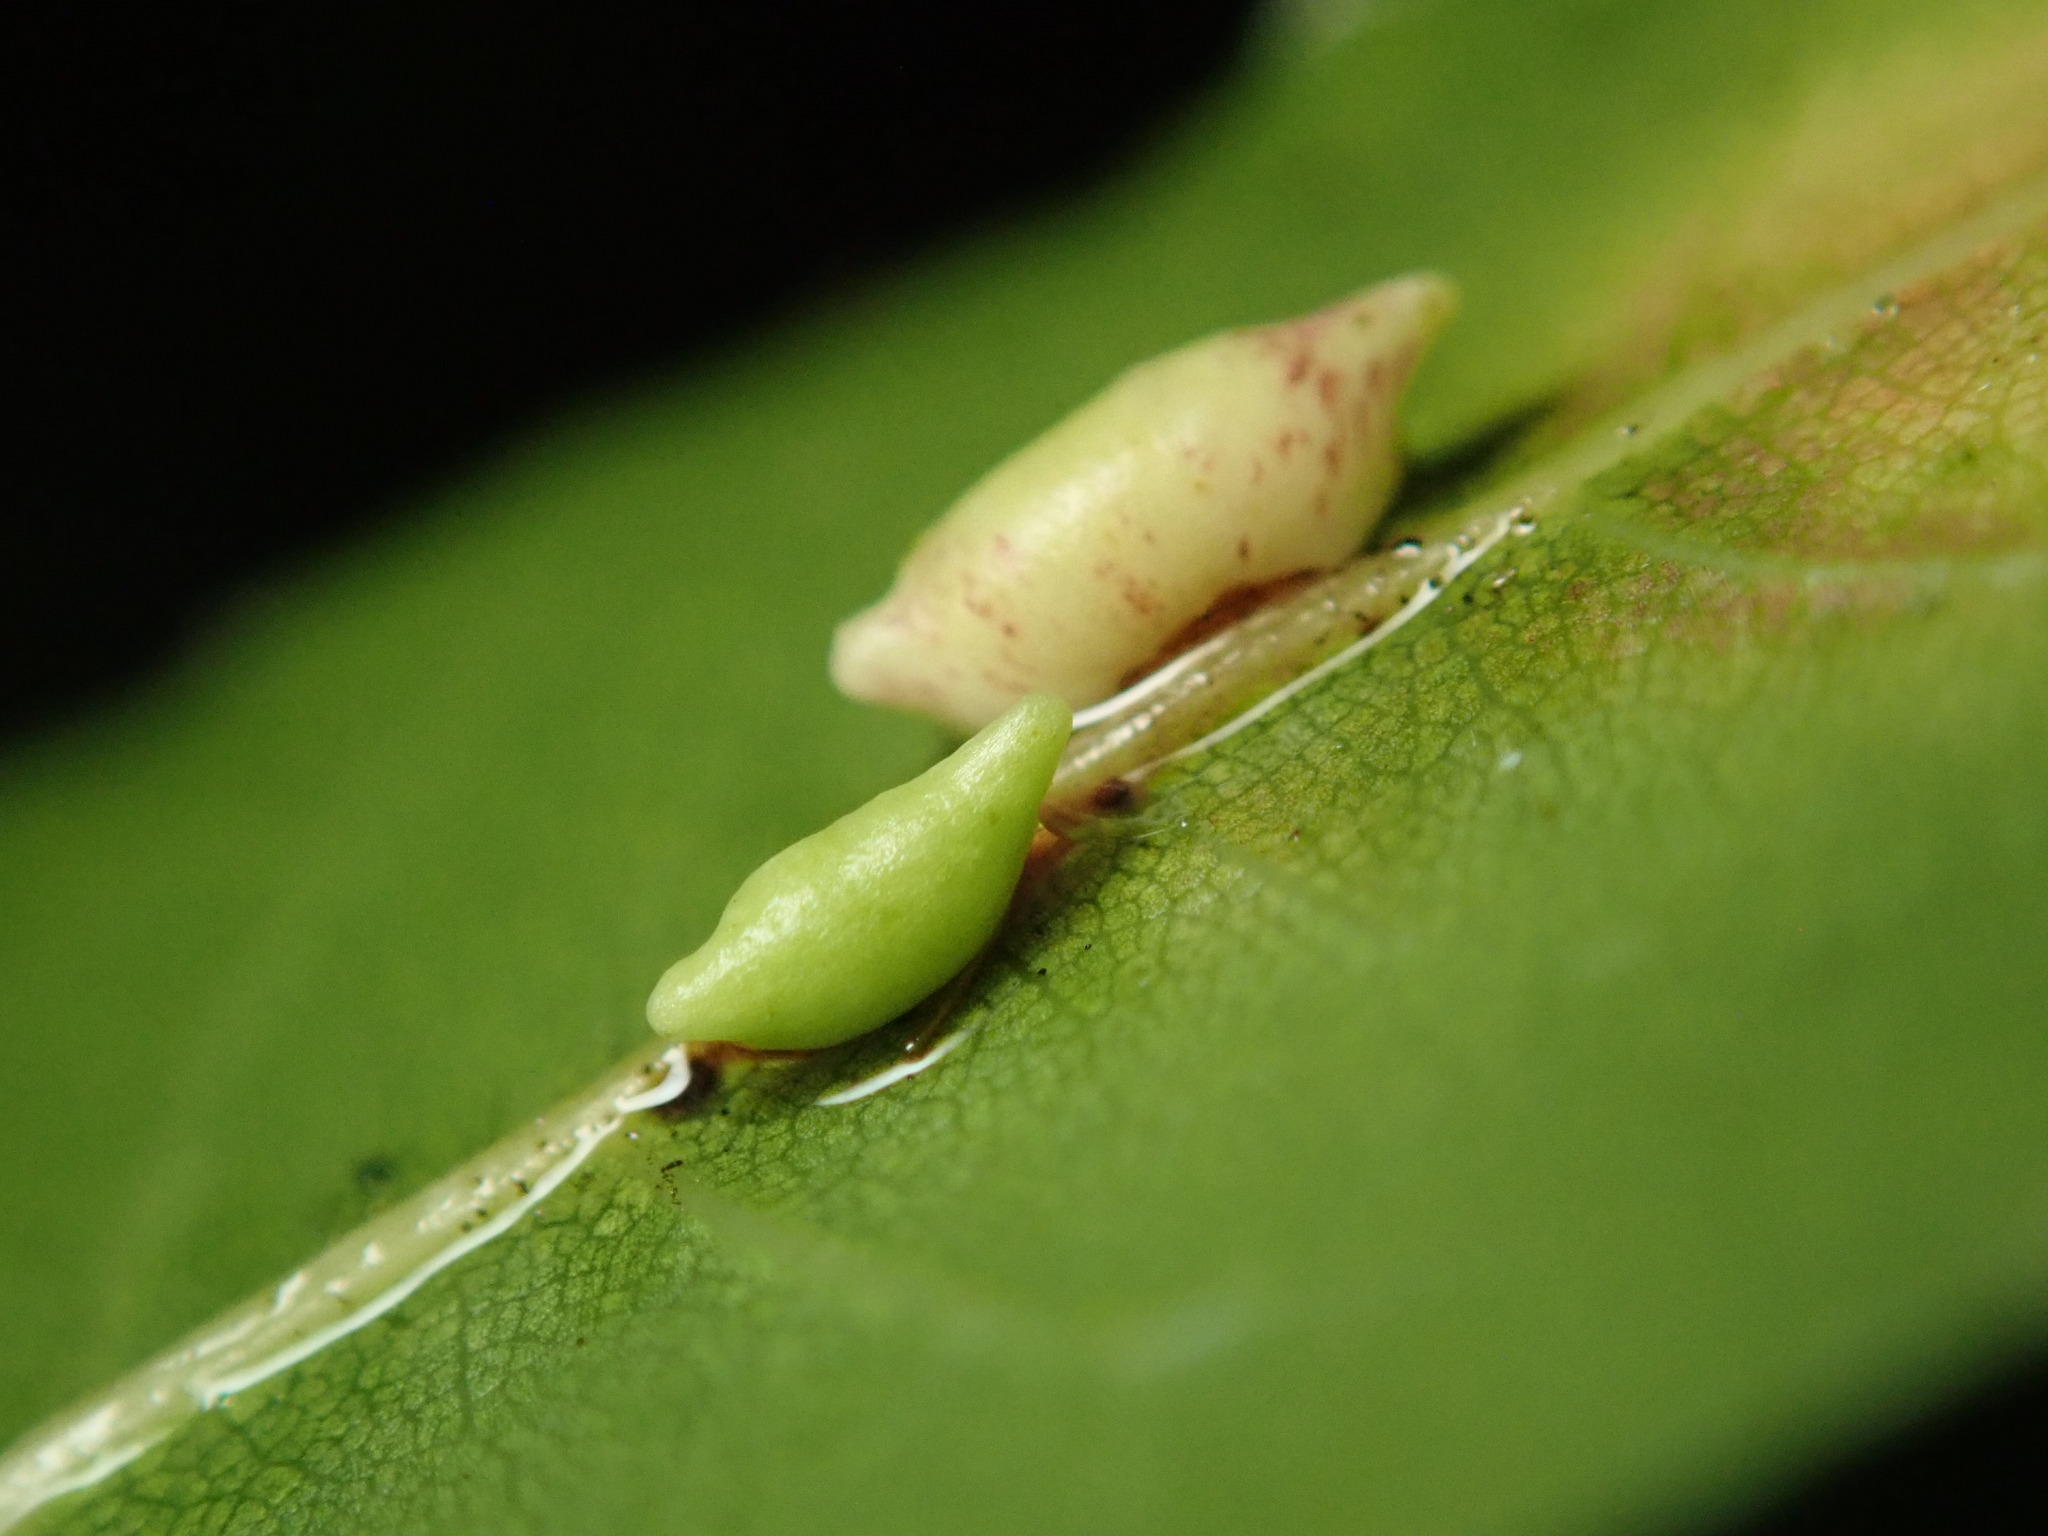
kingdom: Animalia
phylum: Arthropoda
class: Insecta
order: Hymenoptera
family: Cynipidae
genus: Dryocosmus
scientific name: Dryocosmus
